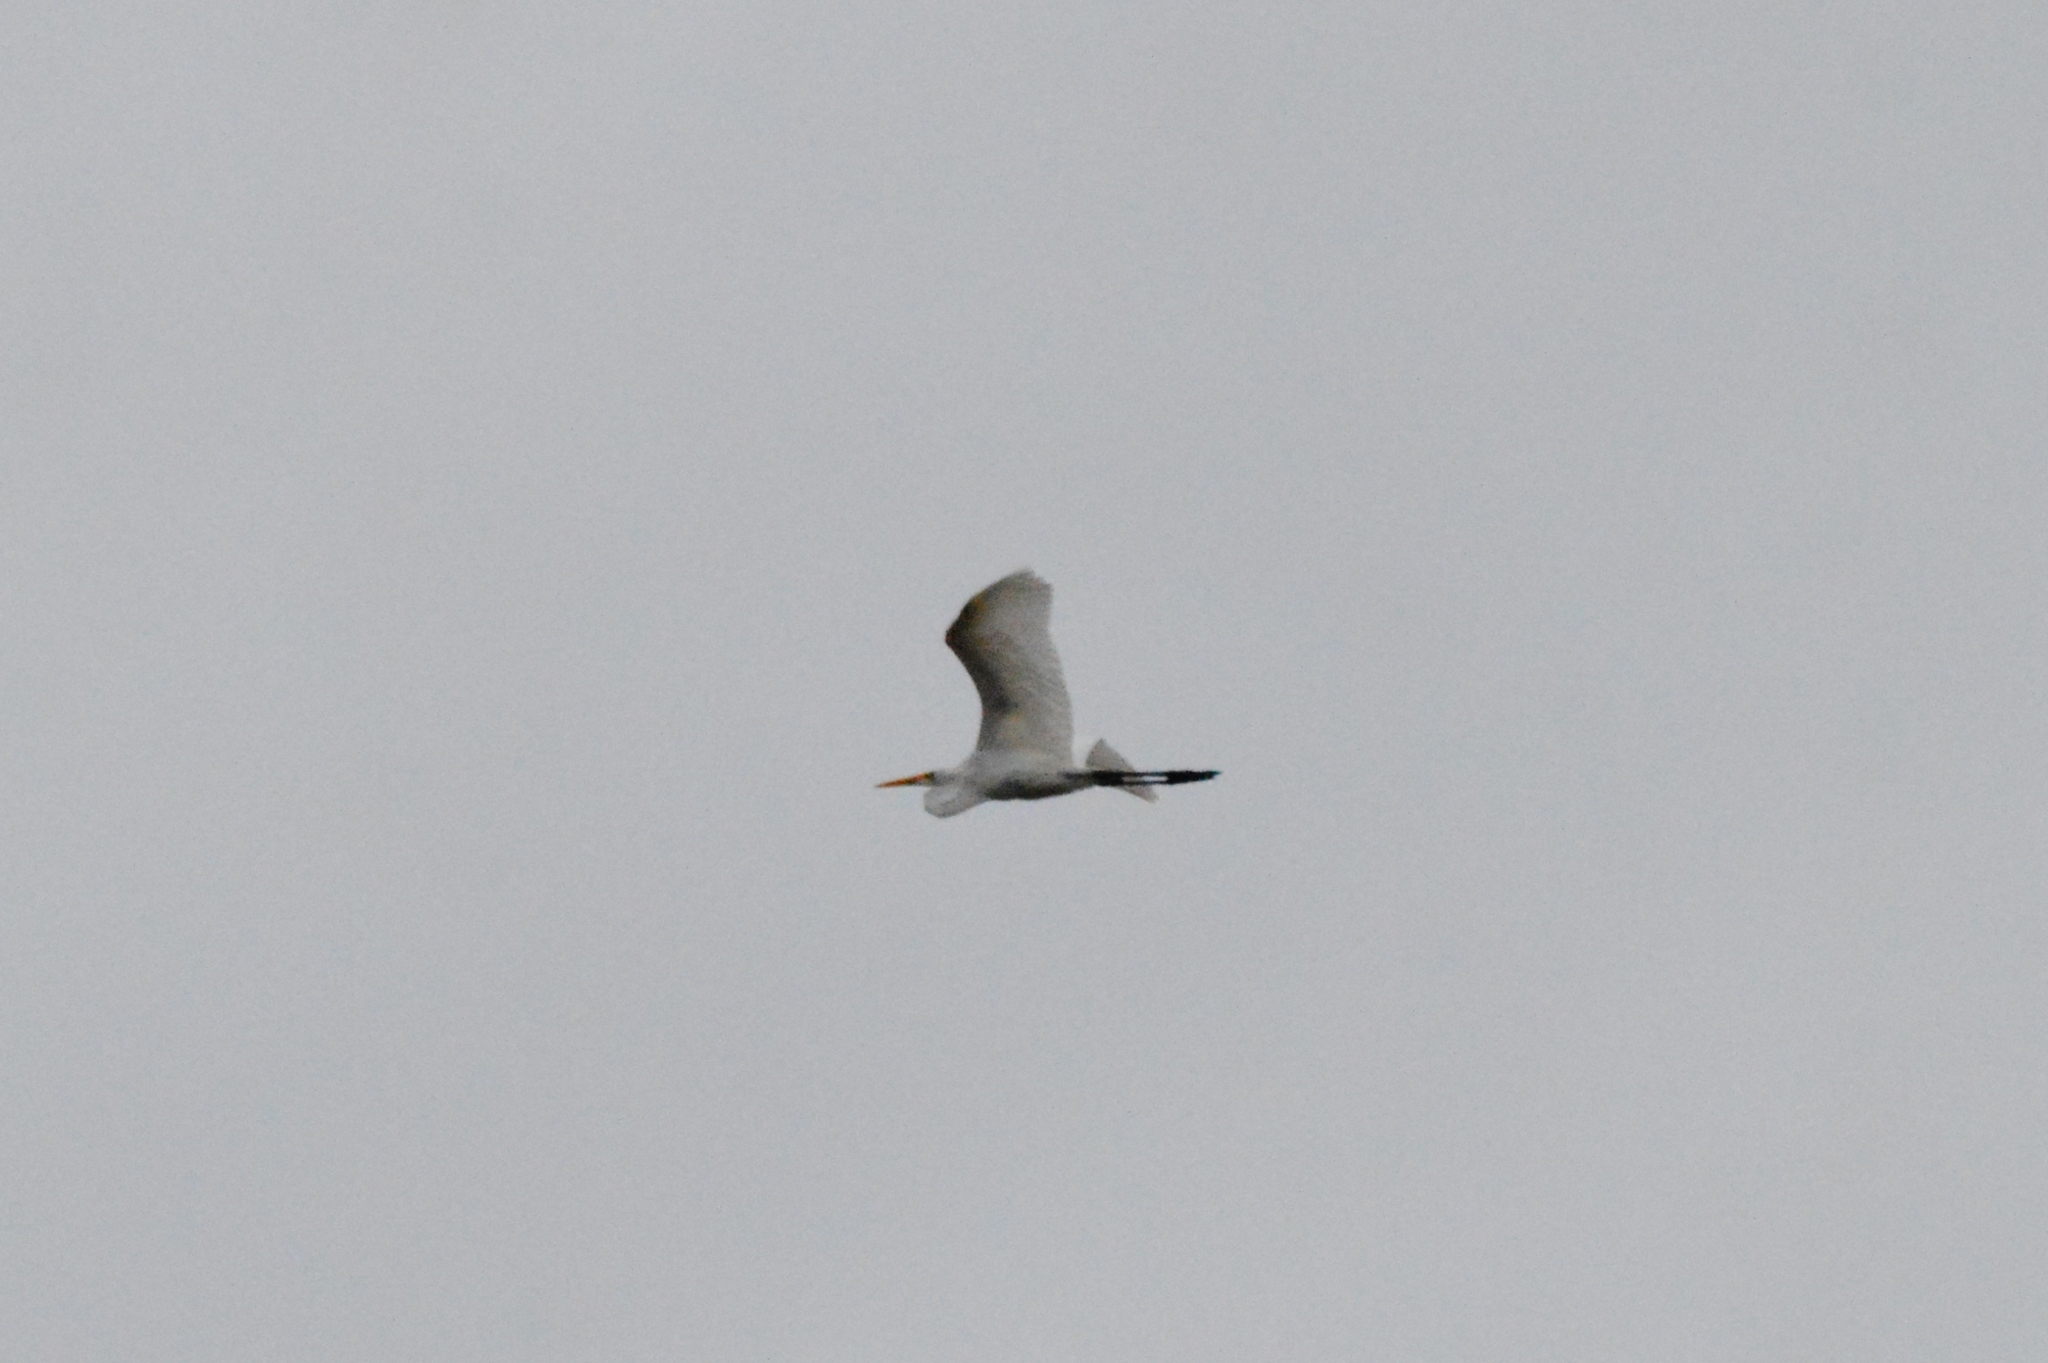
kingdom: Animalia
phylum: Chordata
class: Aves
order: Pelecaniformes
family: Ardeidae
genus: Ardea
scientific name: Ardea alba
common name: Great egret
